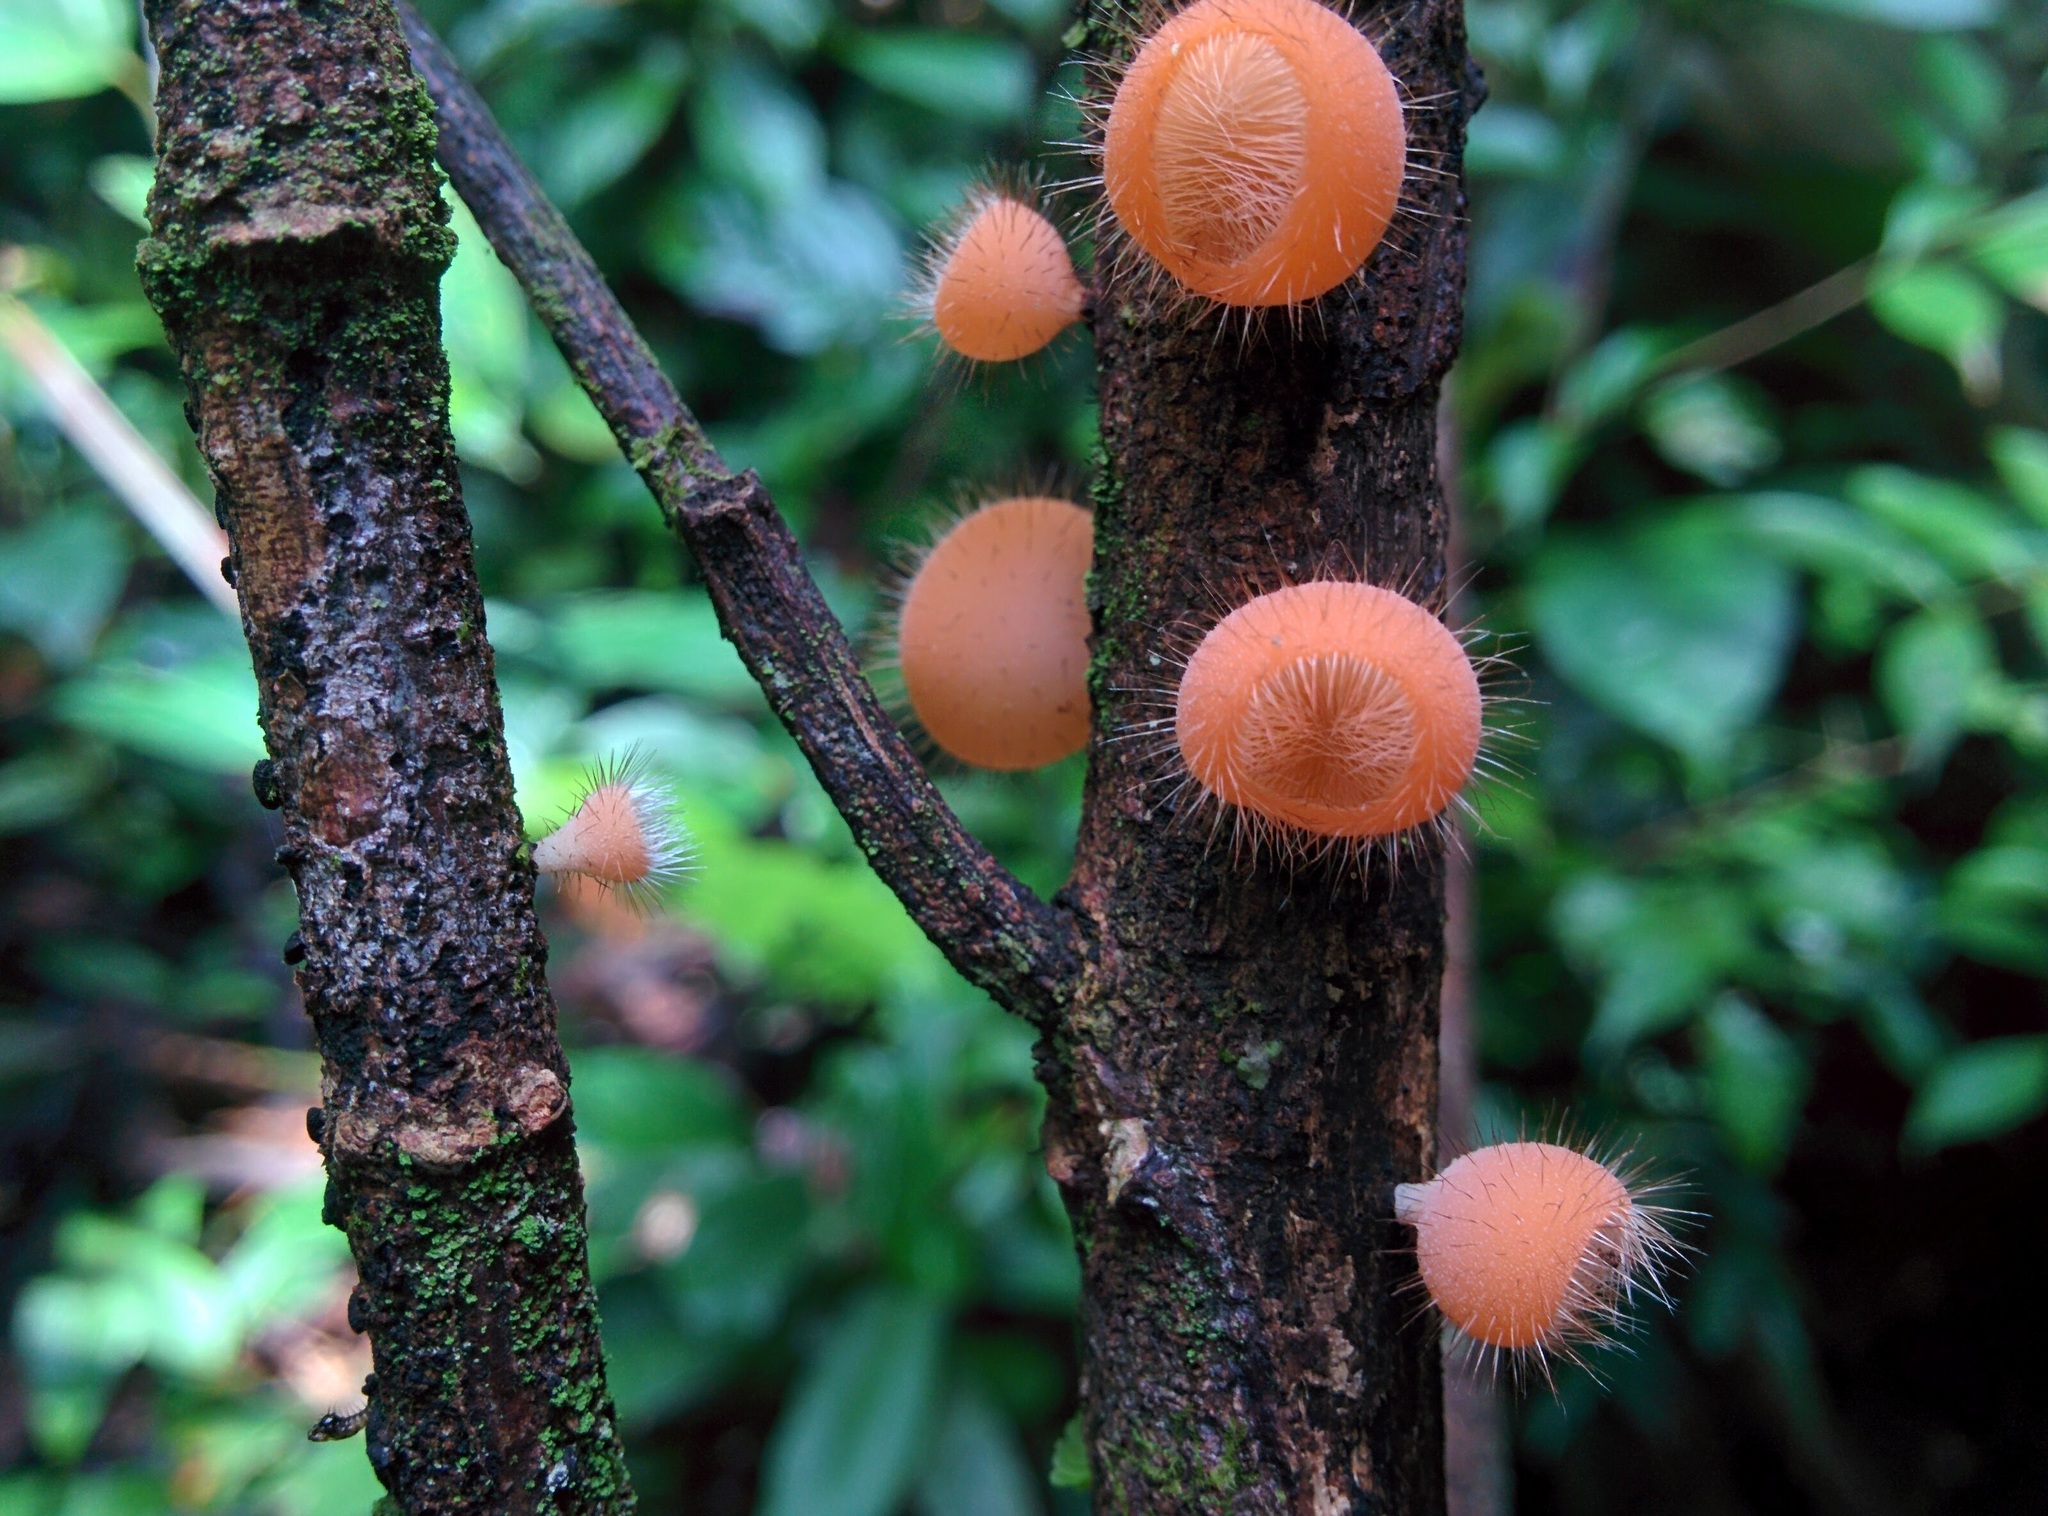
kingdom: Fungi
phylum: Ascomycota
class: Pezizomycetes
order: Pezizales
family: Sarcoscyphaceae
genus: Cookeina
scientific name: Cookeina tricholoma
